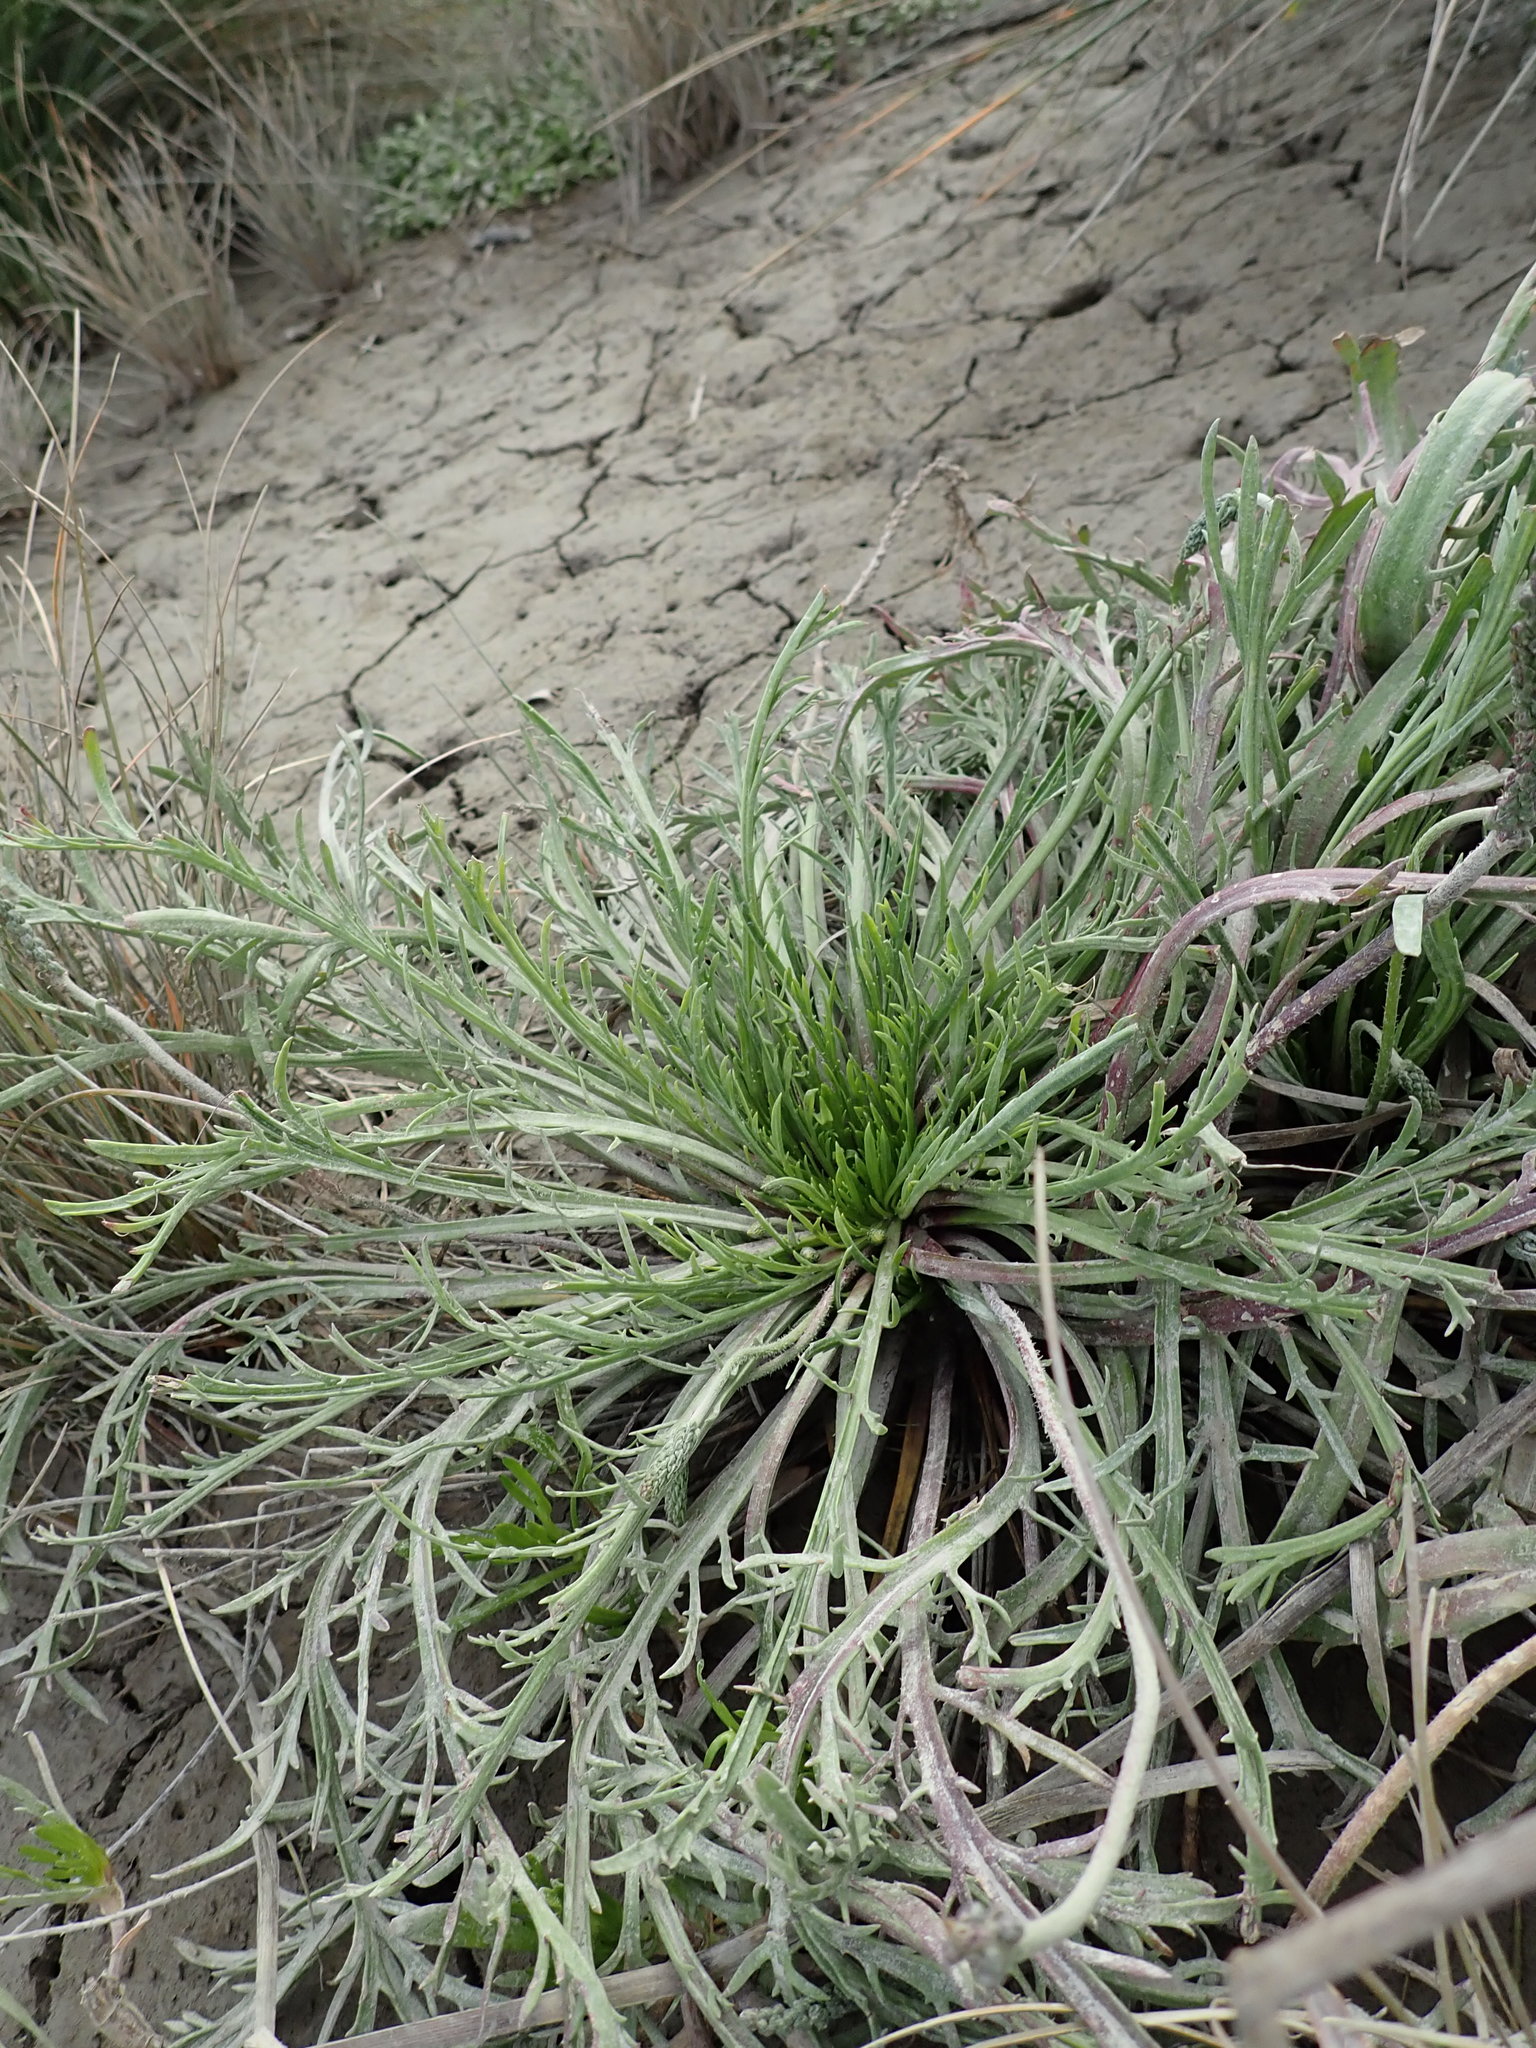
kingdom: Plantae
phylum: Tracheophyta
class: Magnoliopsida
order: Lamiales
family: Plantaginaceae
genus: Plantago
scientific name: Plantago coronopus
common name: Buck's-horn plantain
